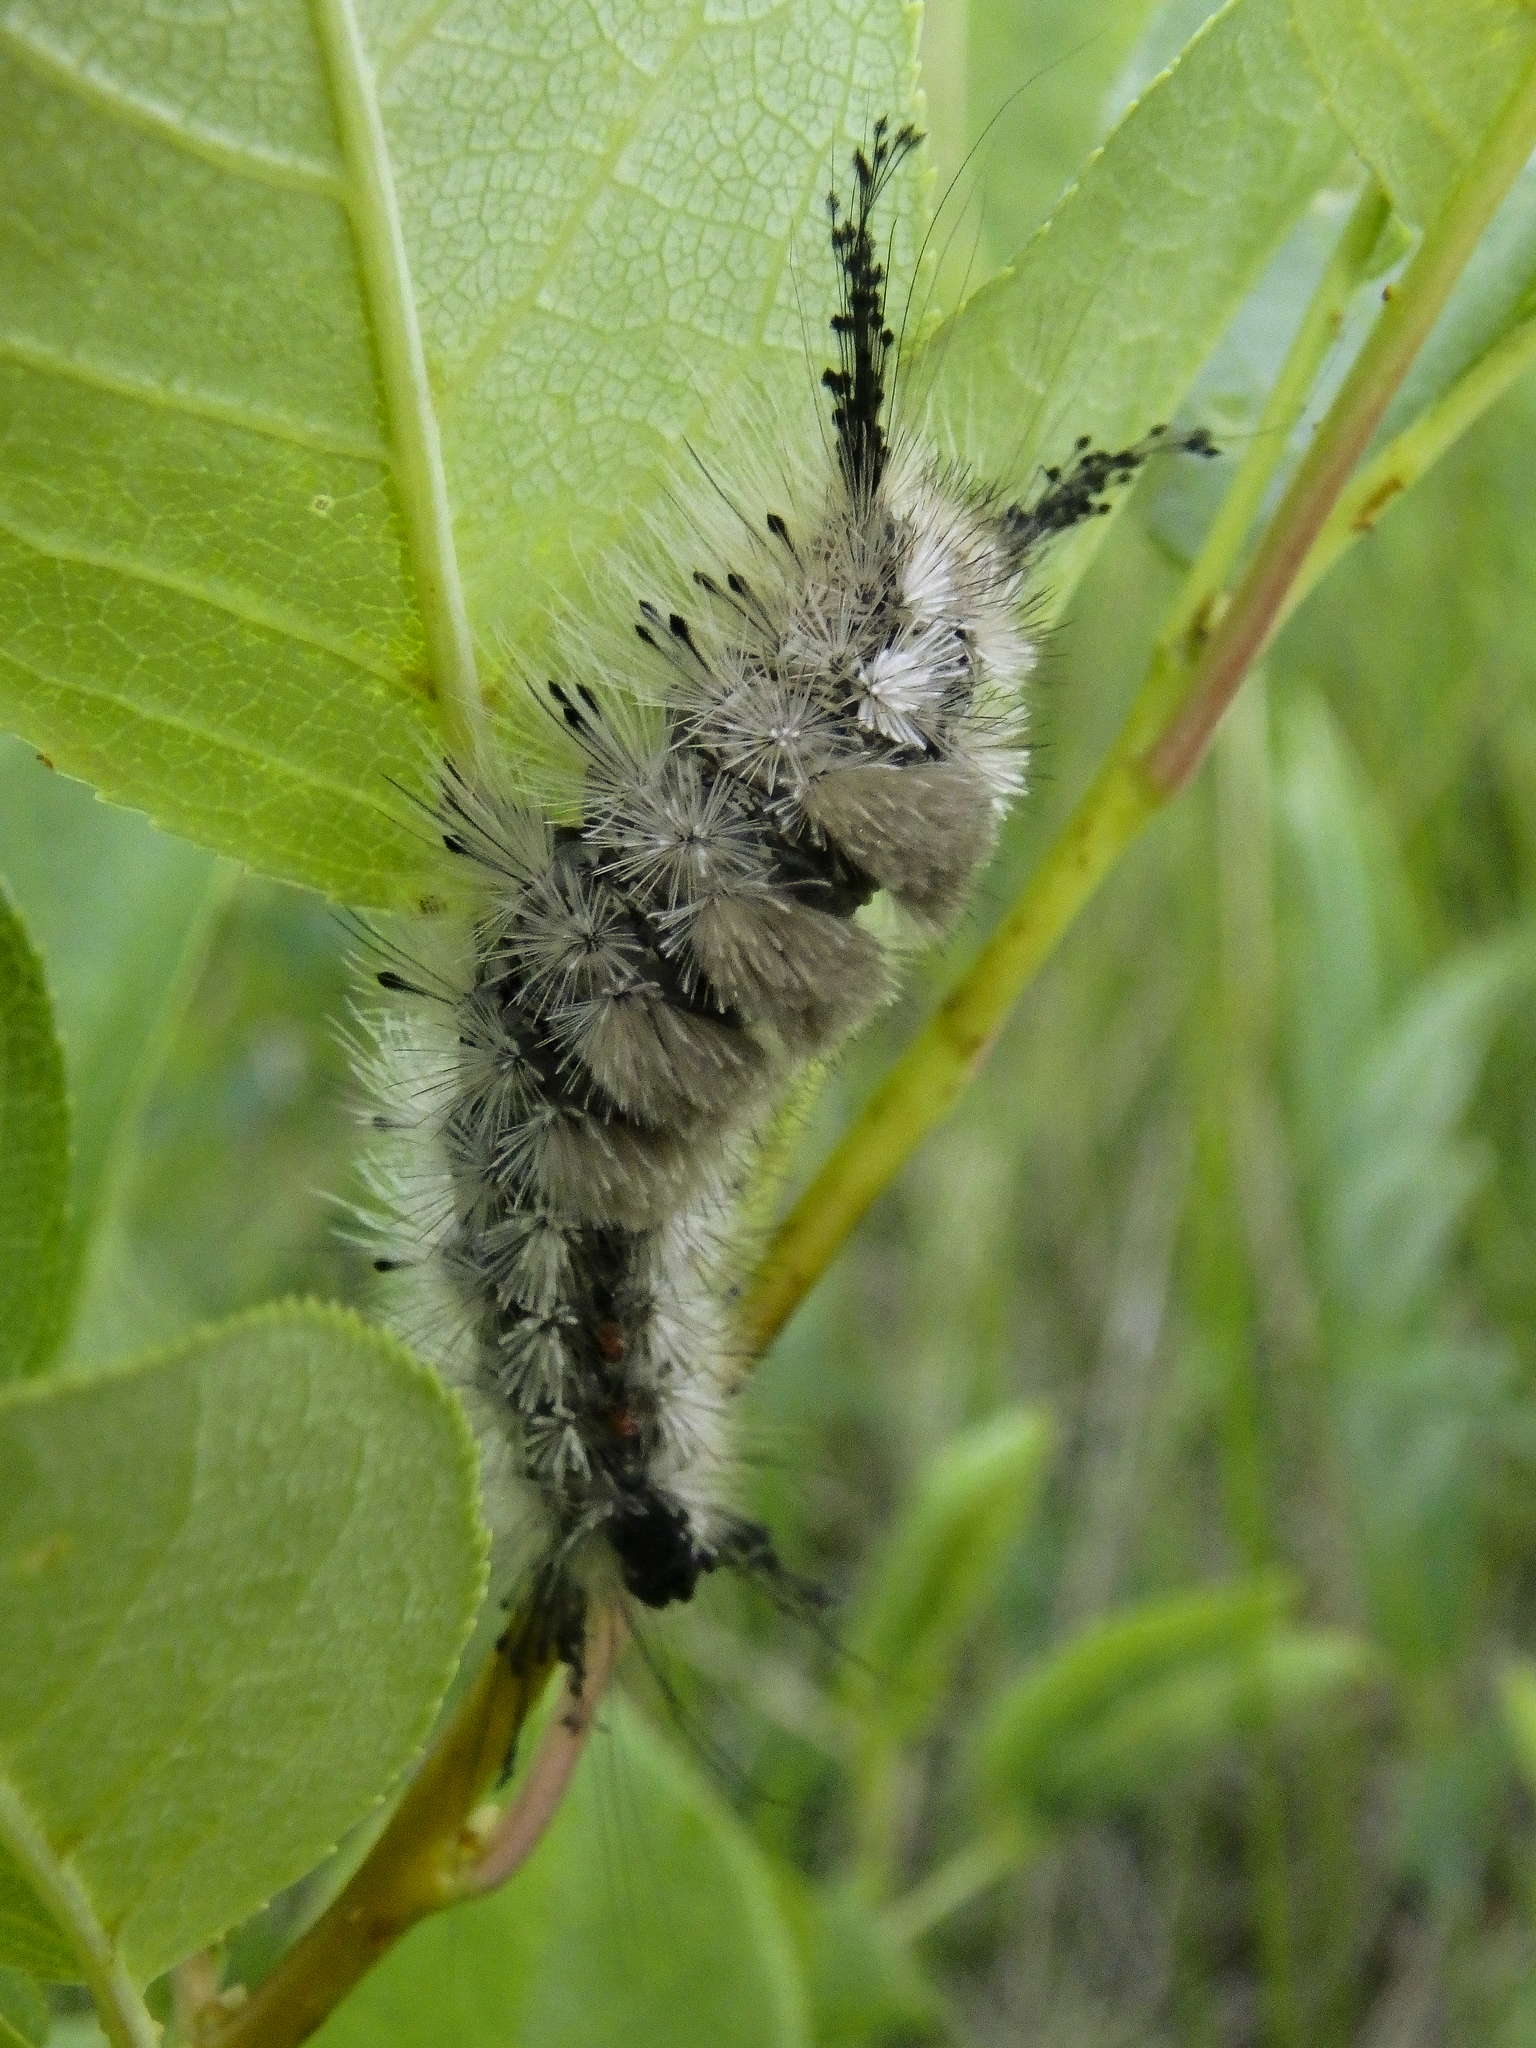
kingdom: Animalia
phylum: Arthropoda
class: Insecta
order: Lepidoptera
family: Erebidae
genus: Dasychira
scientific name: Dasychira vagans
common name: Variable tussock moth
